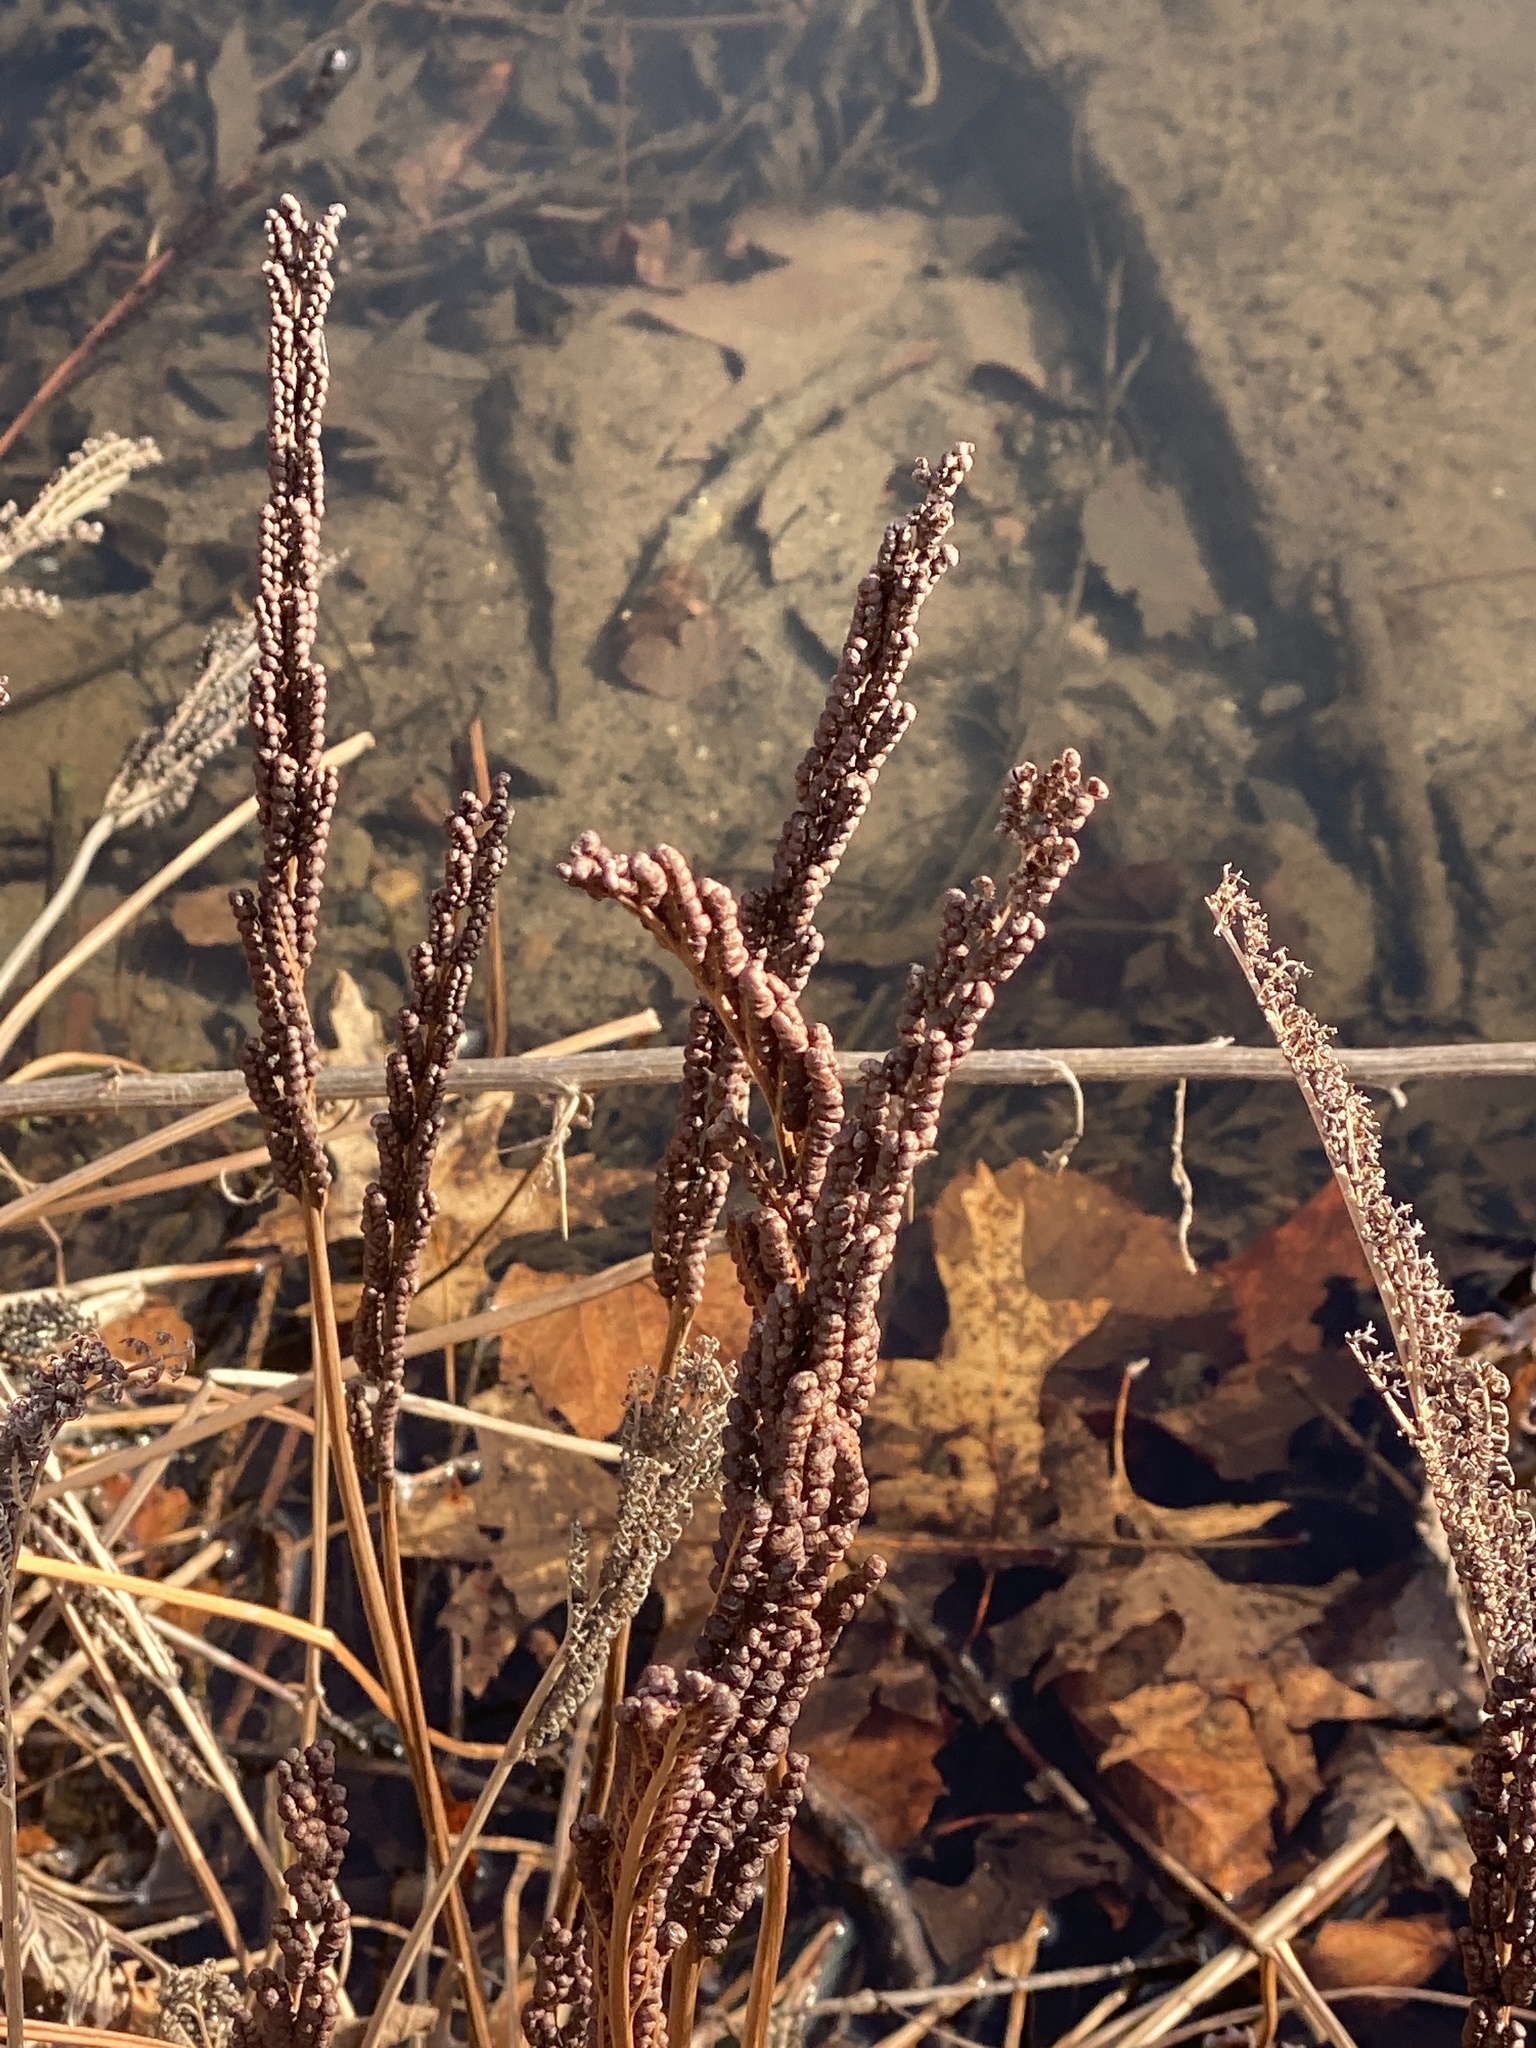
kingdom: Plantae
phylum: Tracheophyta
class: Polypodiopsida
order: Polypodiales
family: Onocleaceae
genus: Onoclea
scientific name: Onoclea sensibilis
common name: Sensitive fern
